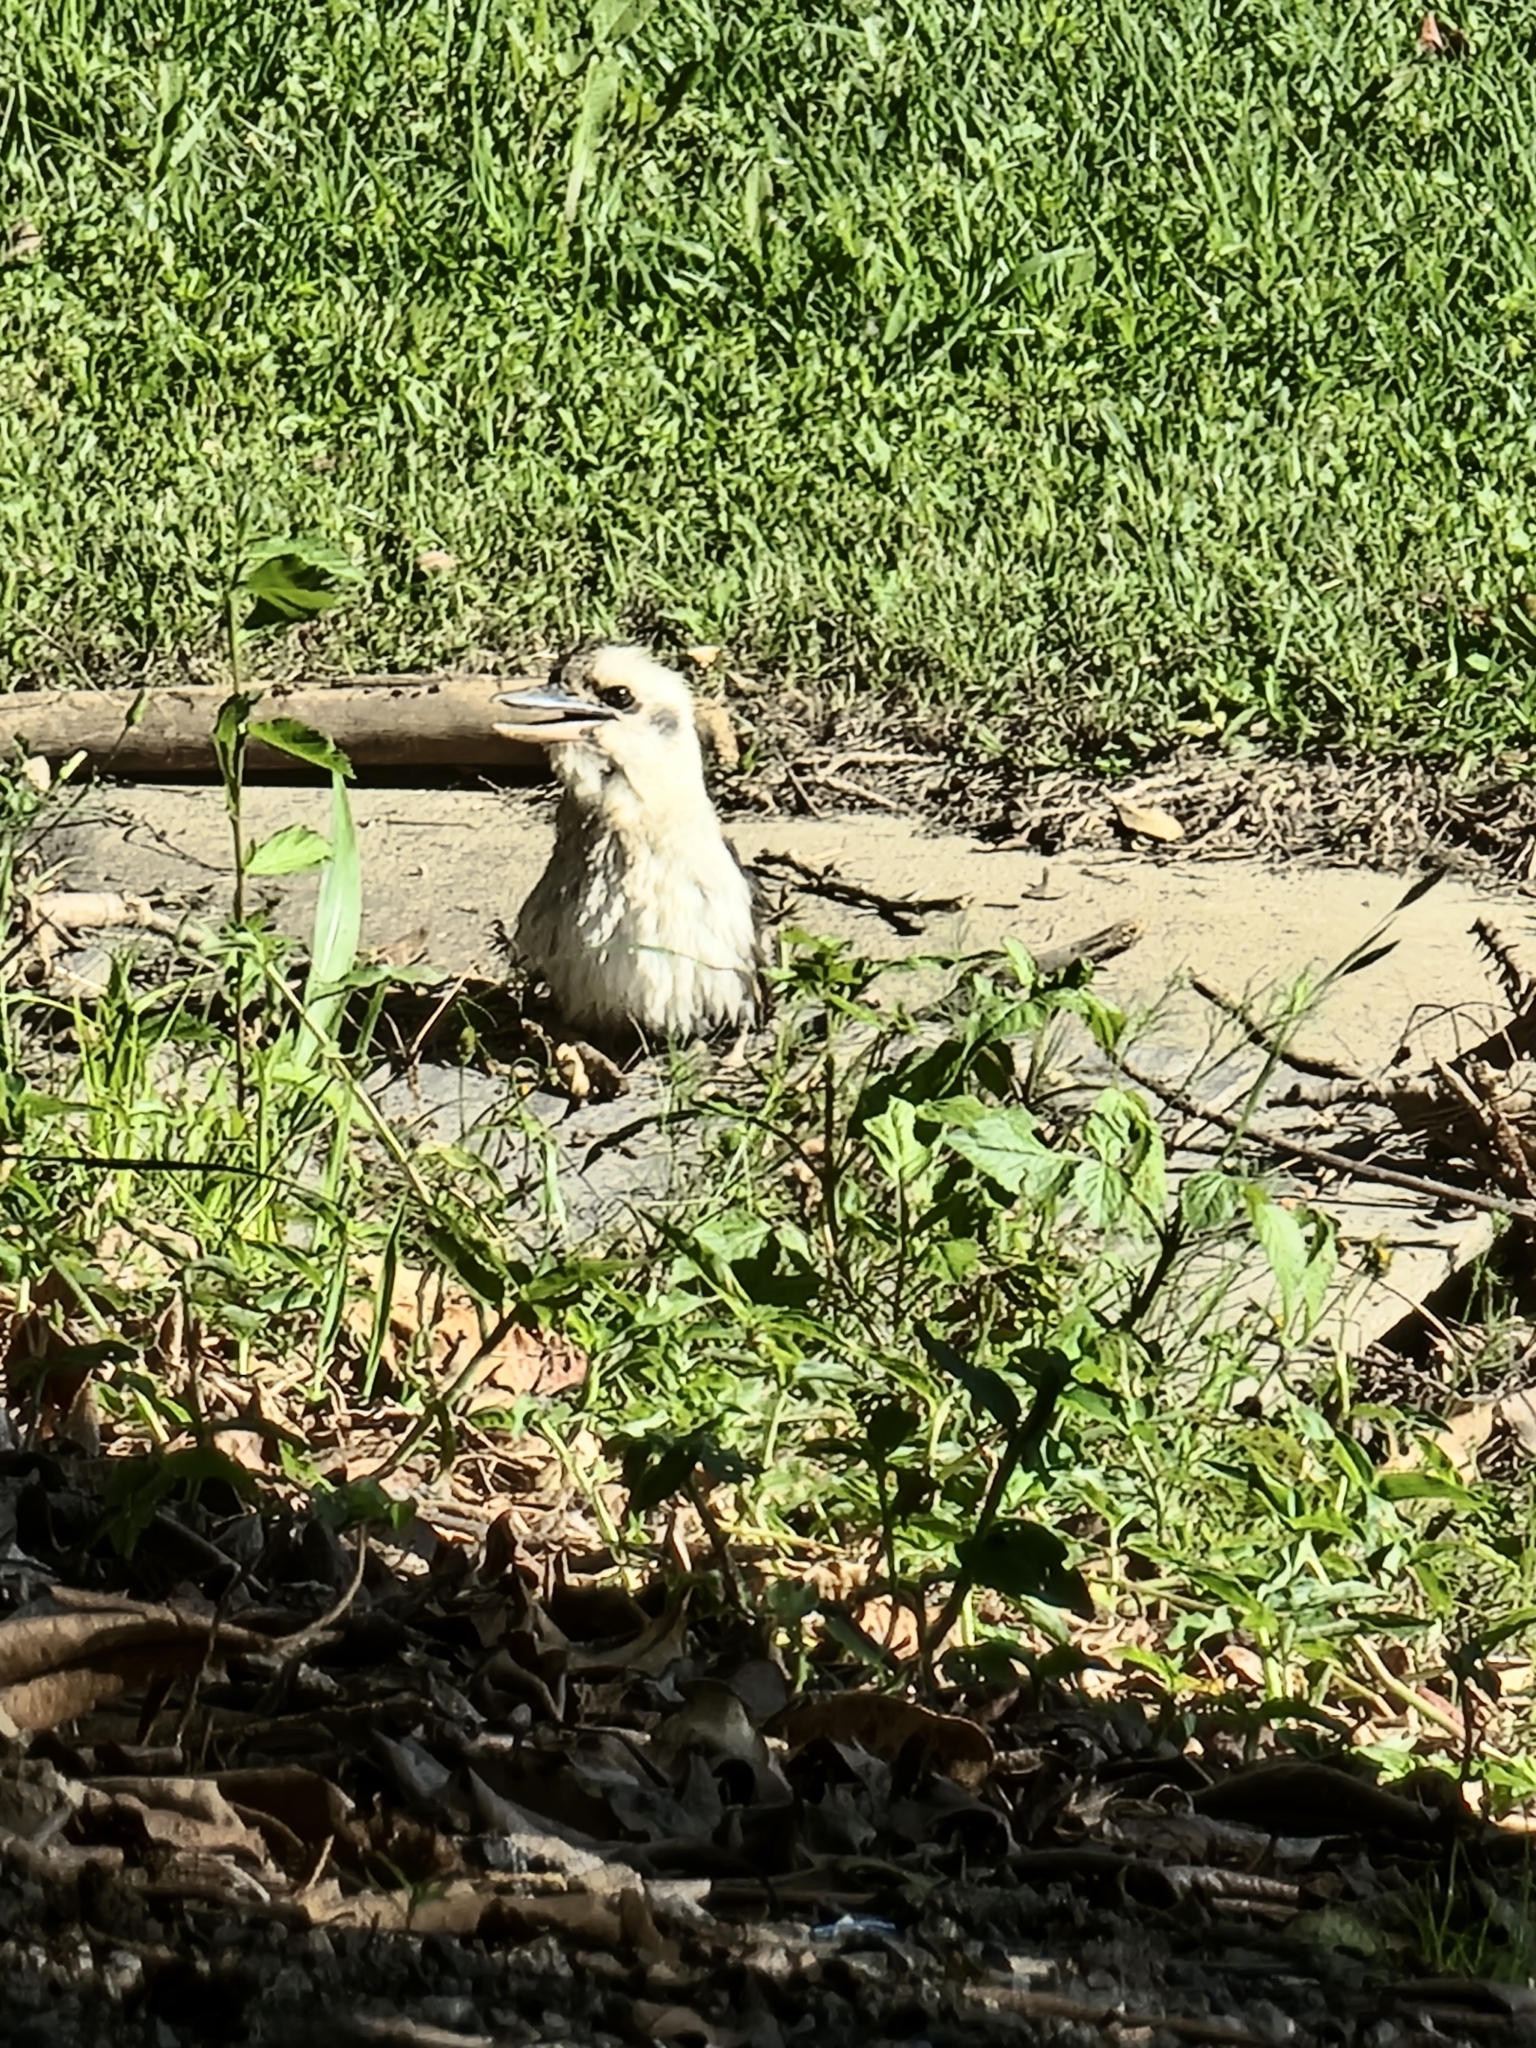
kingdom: Animalia
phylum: Chordata
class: Aves
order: Coraciiformes
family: Alcedinidae
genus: Dacelo
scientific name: Dacelo novaeguineae
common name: Laughing kookaburra
